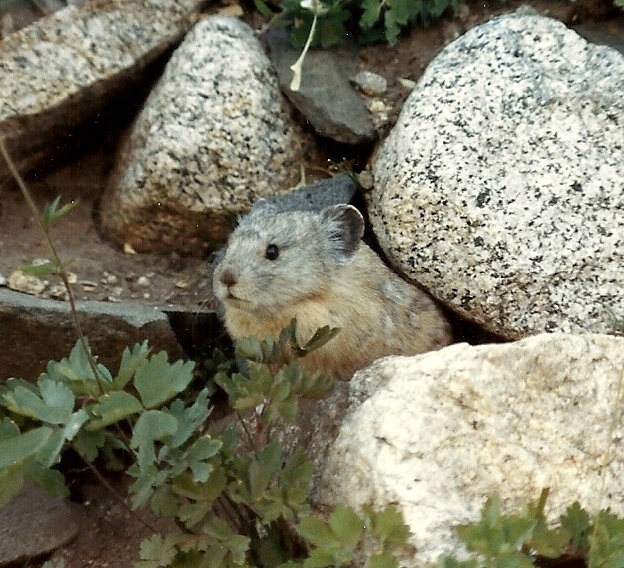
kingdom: Animalia
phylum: Chordata
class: Mammalia
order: Lagomorpha
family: Ochotonidae
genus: Ochotona
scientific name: Ochotona princeps
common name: American pika
